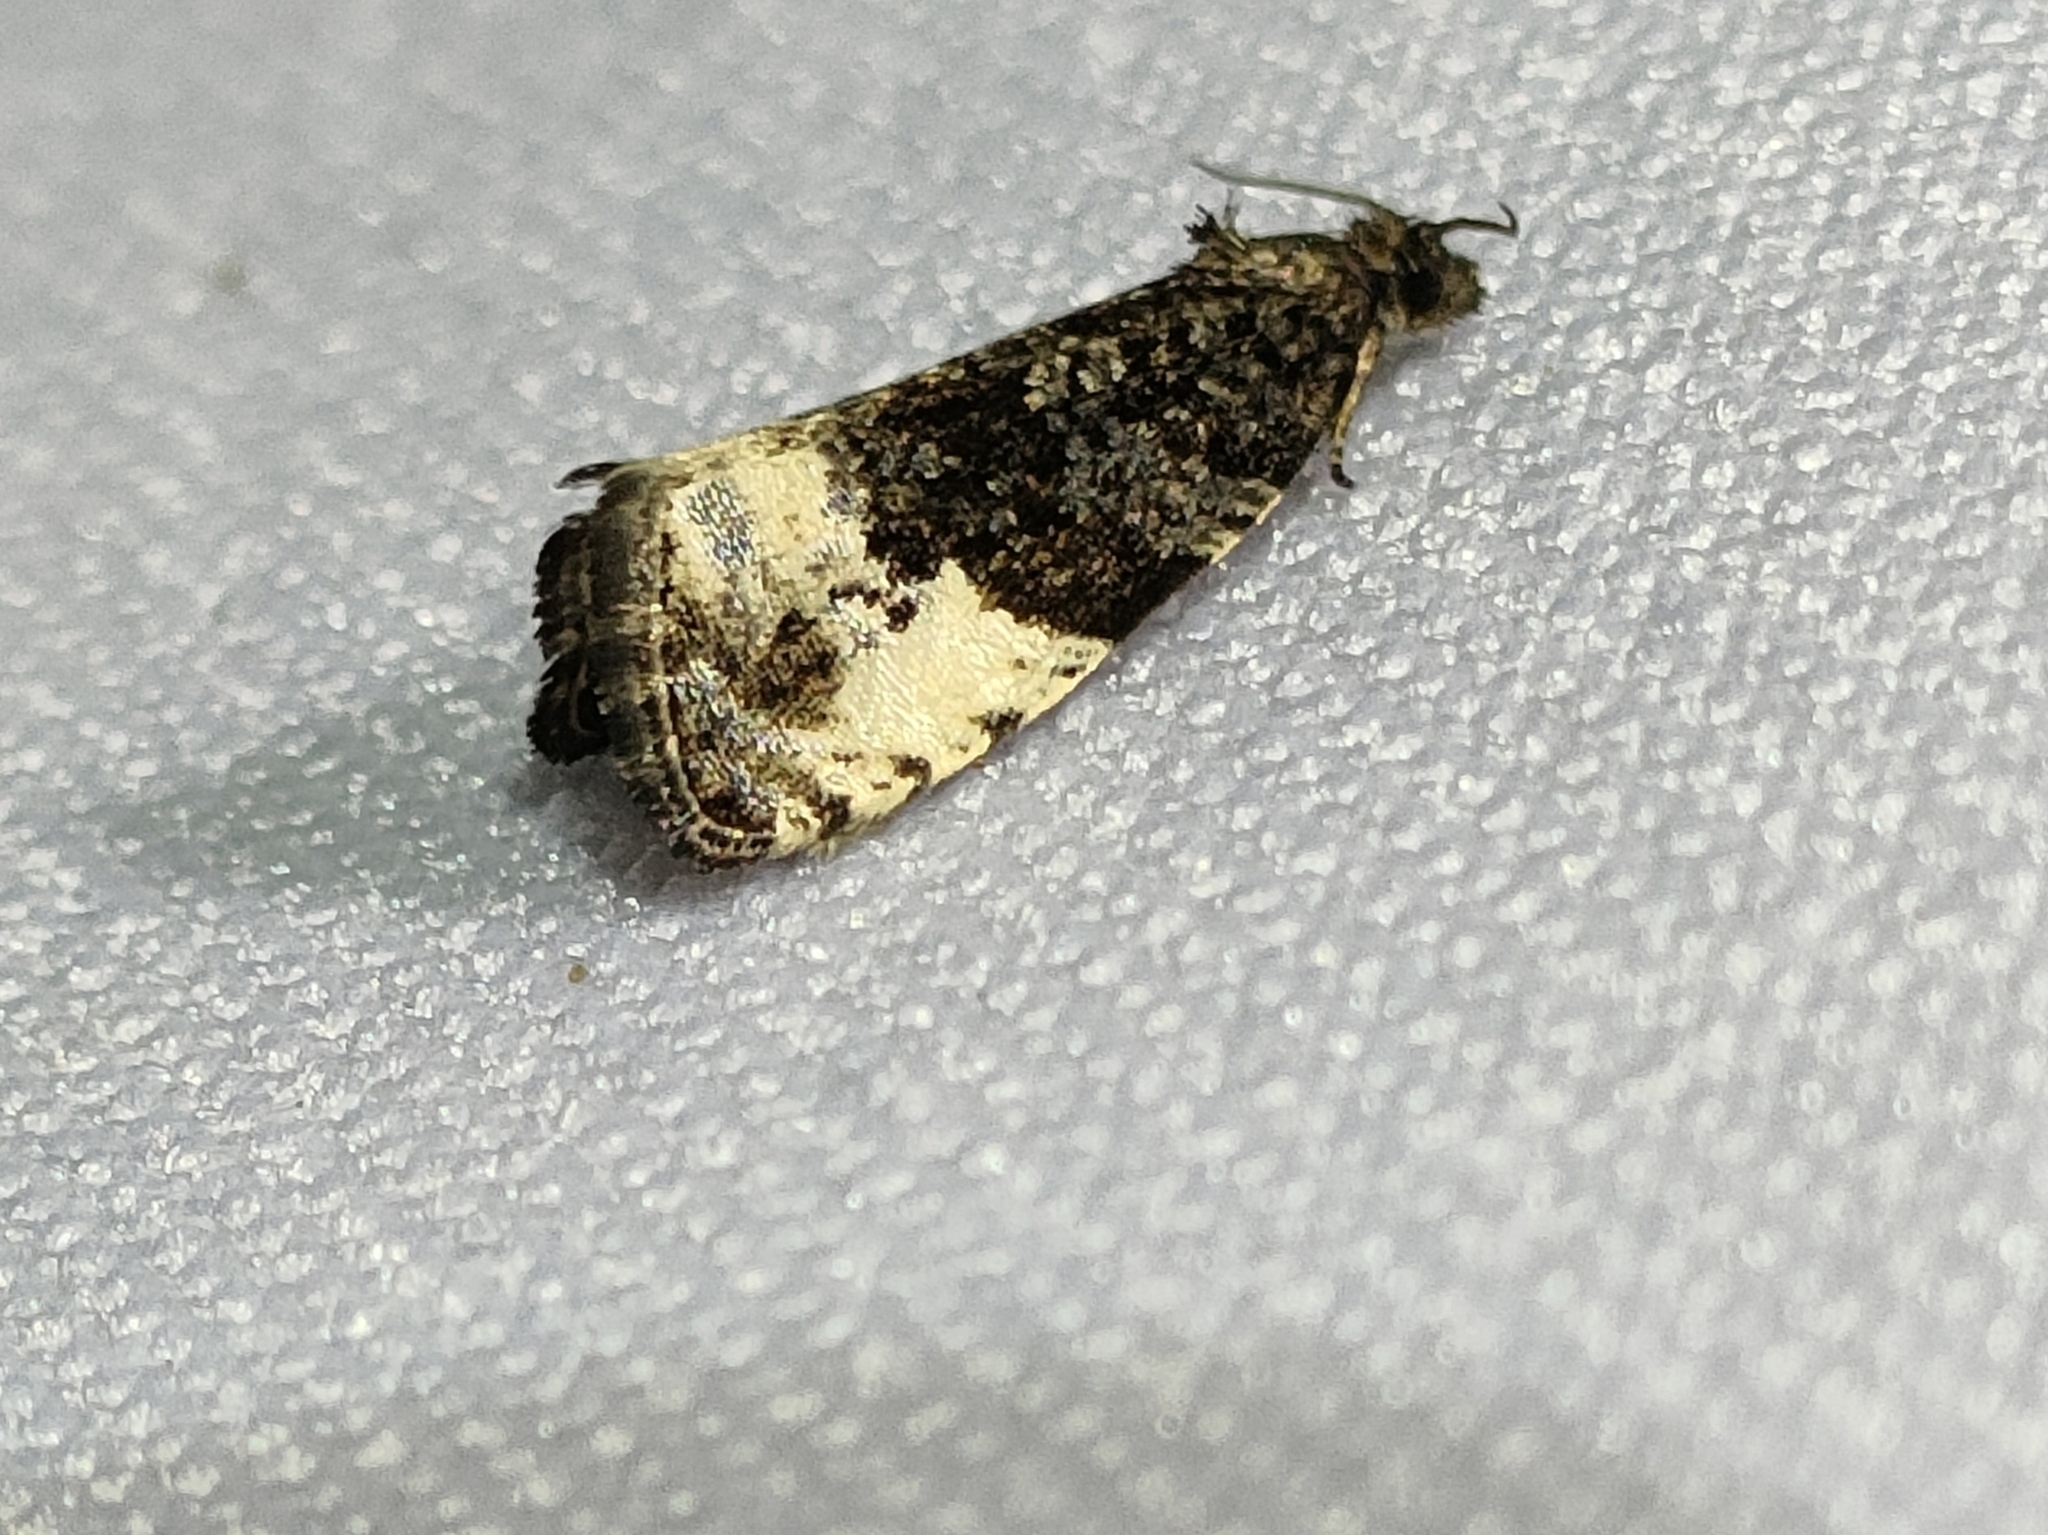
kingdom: Animalia
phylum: Arthropoda
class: Insecta
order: Lepidoptera
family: Tortricidae
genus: Hedya
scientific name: Hedya pruniana
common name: Plum tortrix
